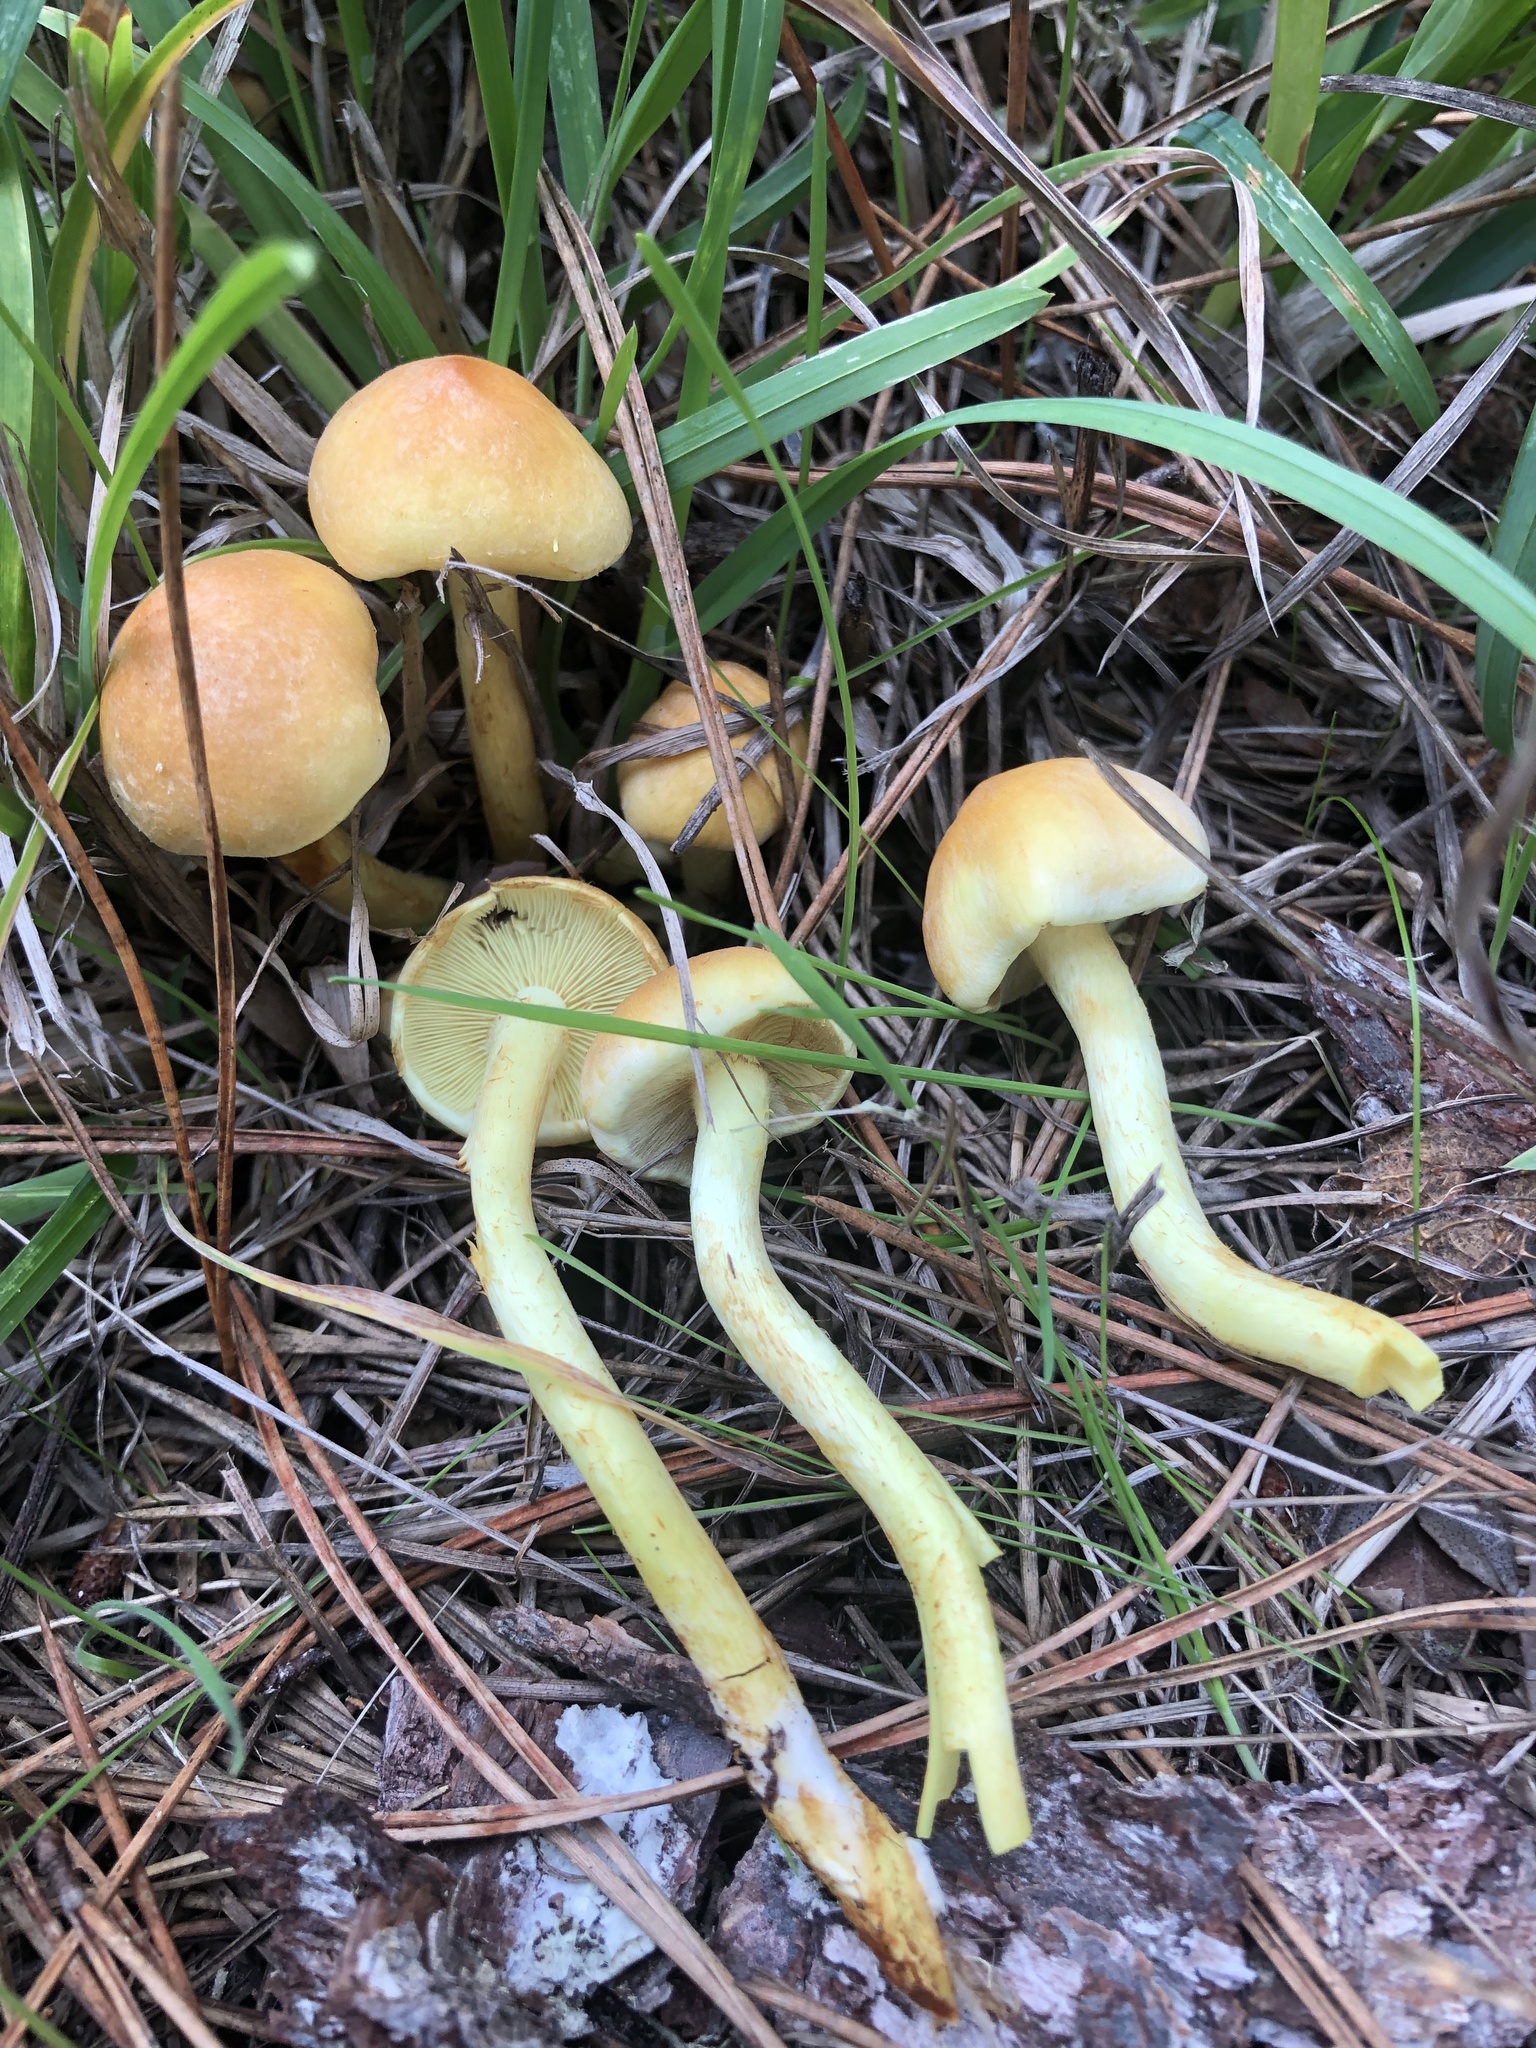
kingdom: Fungi
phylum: Basidiomycota
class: Agaricomycetes
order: Agaricales
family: Strophariaceae
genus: Hypholoma
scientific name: Hypholoma fasciculare
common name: Sulphur tuft
